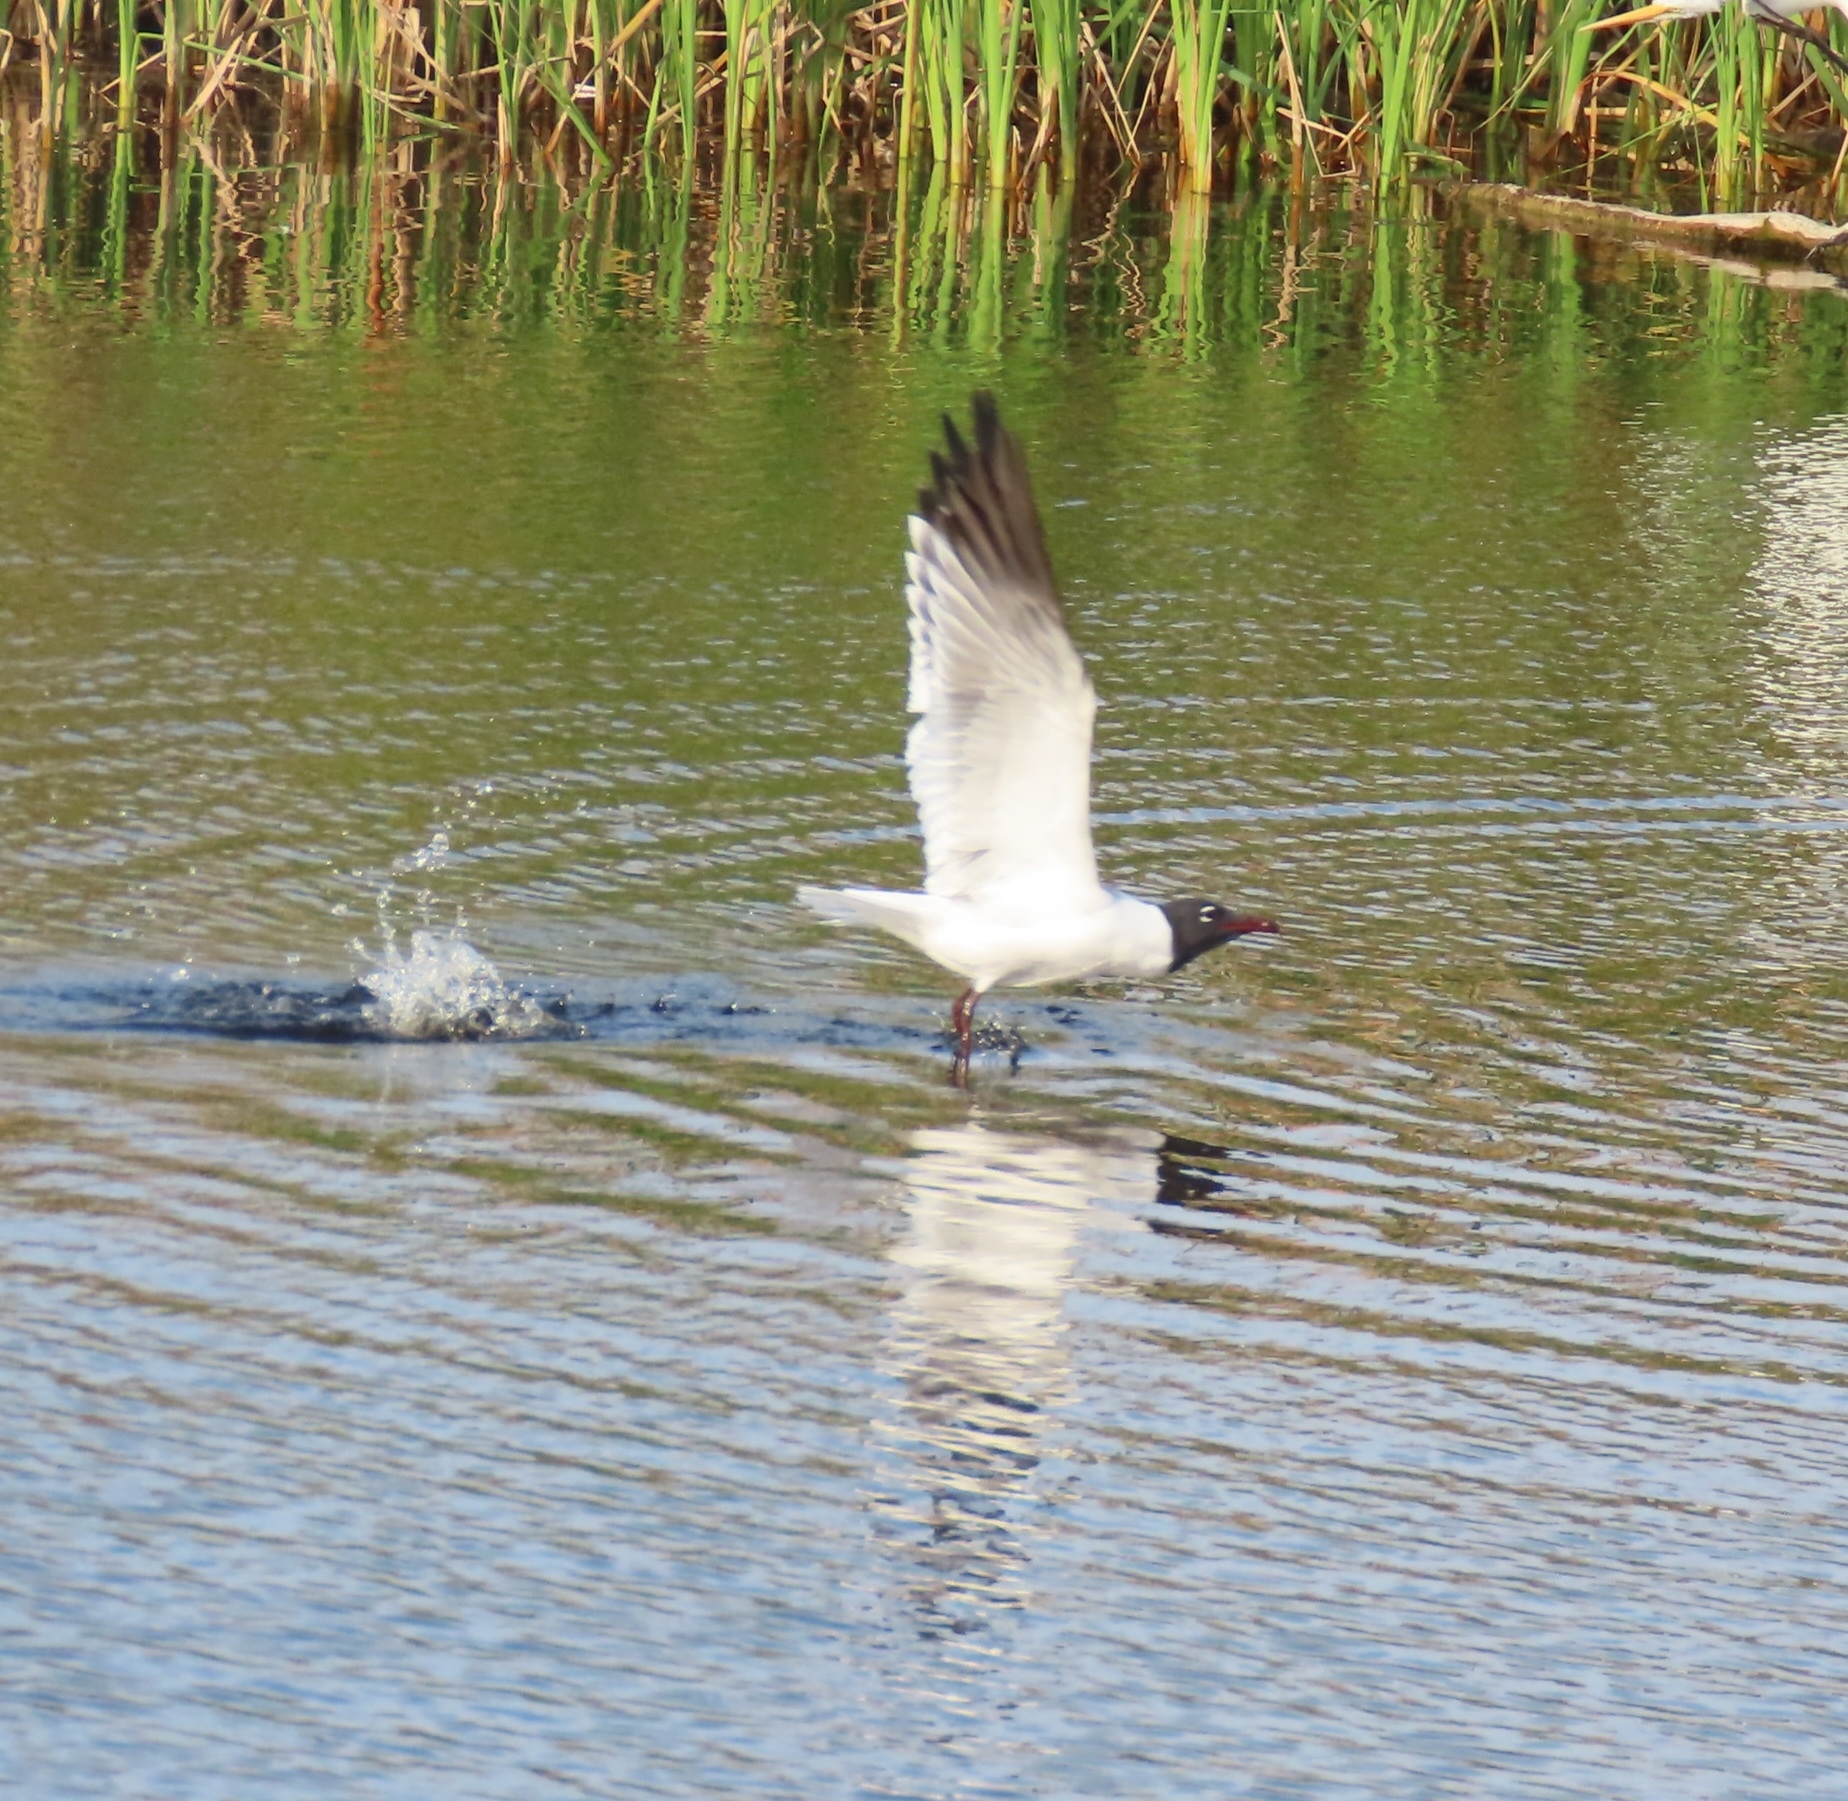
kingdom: Animalia
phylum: Chordata
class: Aves
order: Charadriiformes
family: Laridae
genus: Leucophaeus
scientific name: Leucophaeus atricilla
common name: Laughing gull
